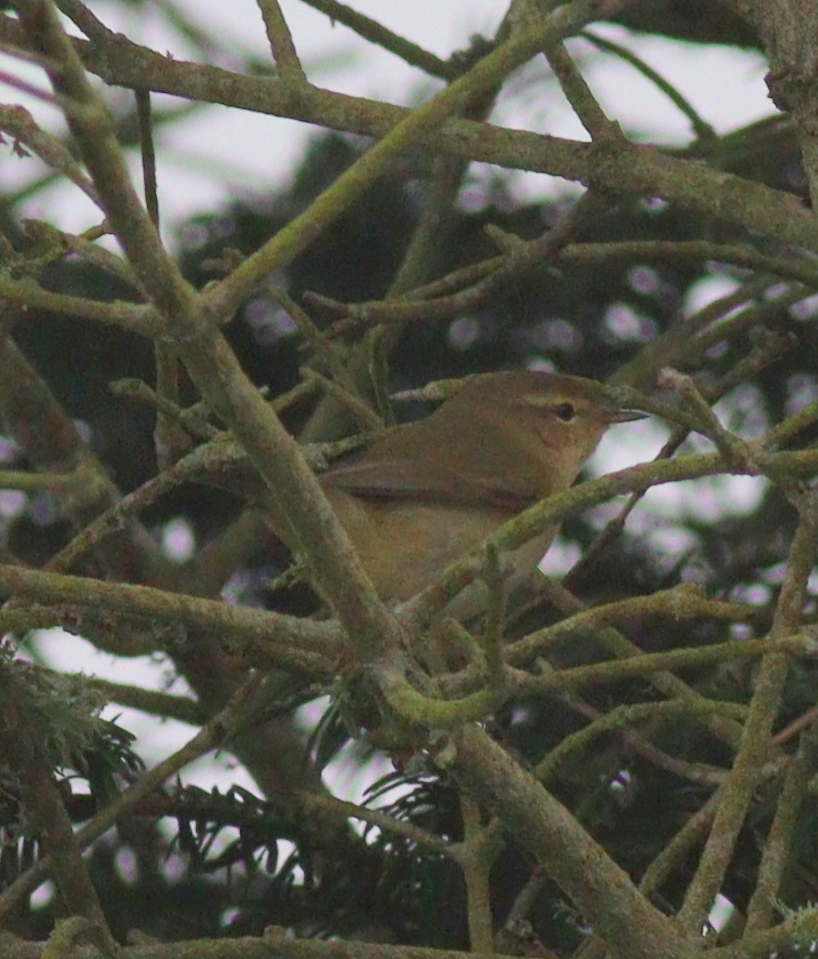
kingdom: Animalia
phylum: Chordata
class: Aves
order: Passeriformes
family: Phylloscopidae
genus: Phylloscopus
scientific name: Phylloscopus collybita
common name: Common chiffchaff
